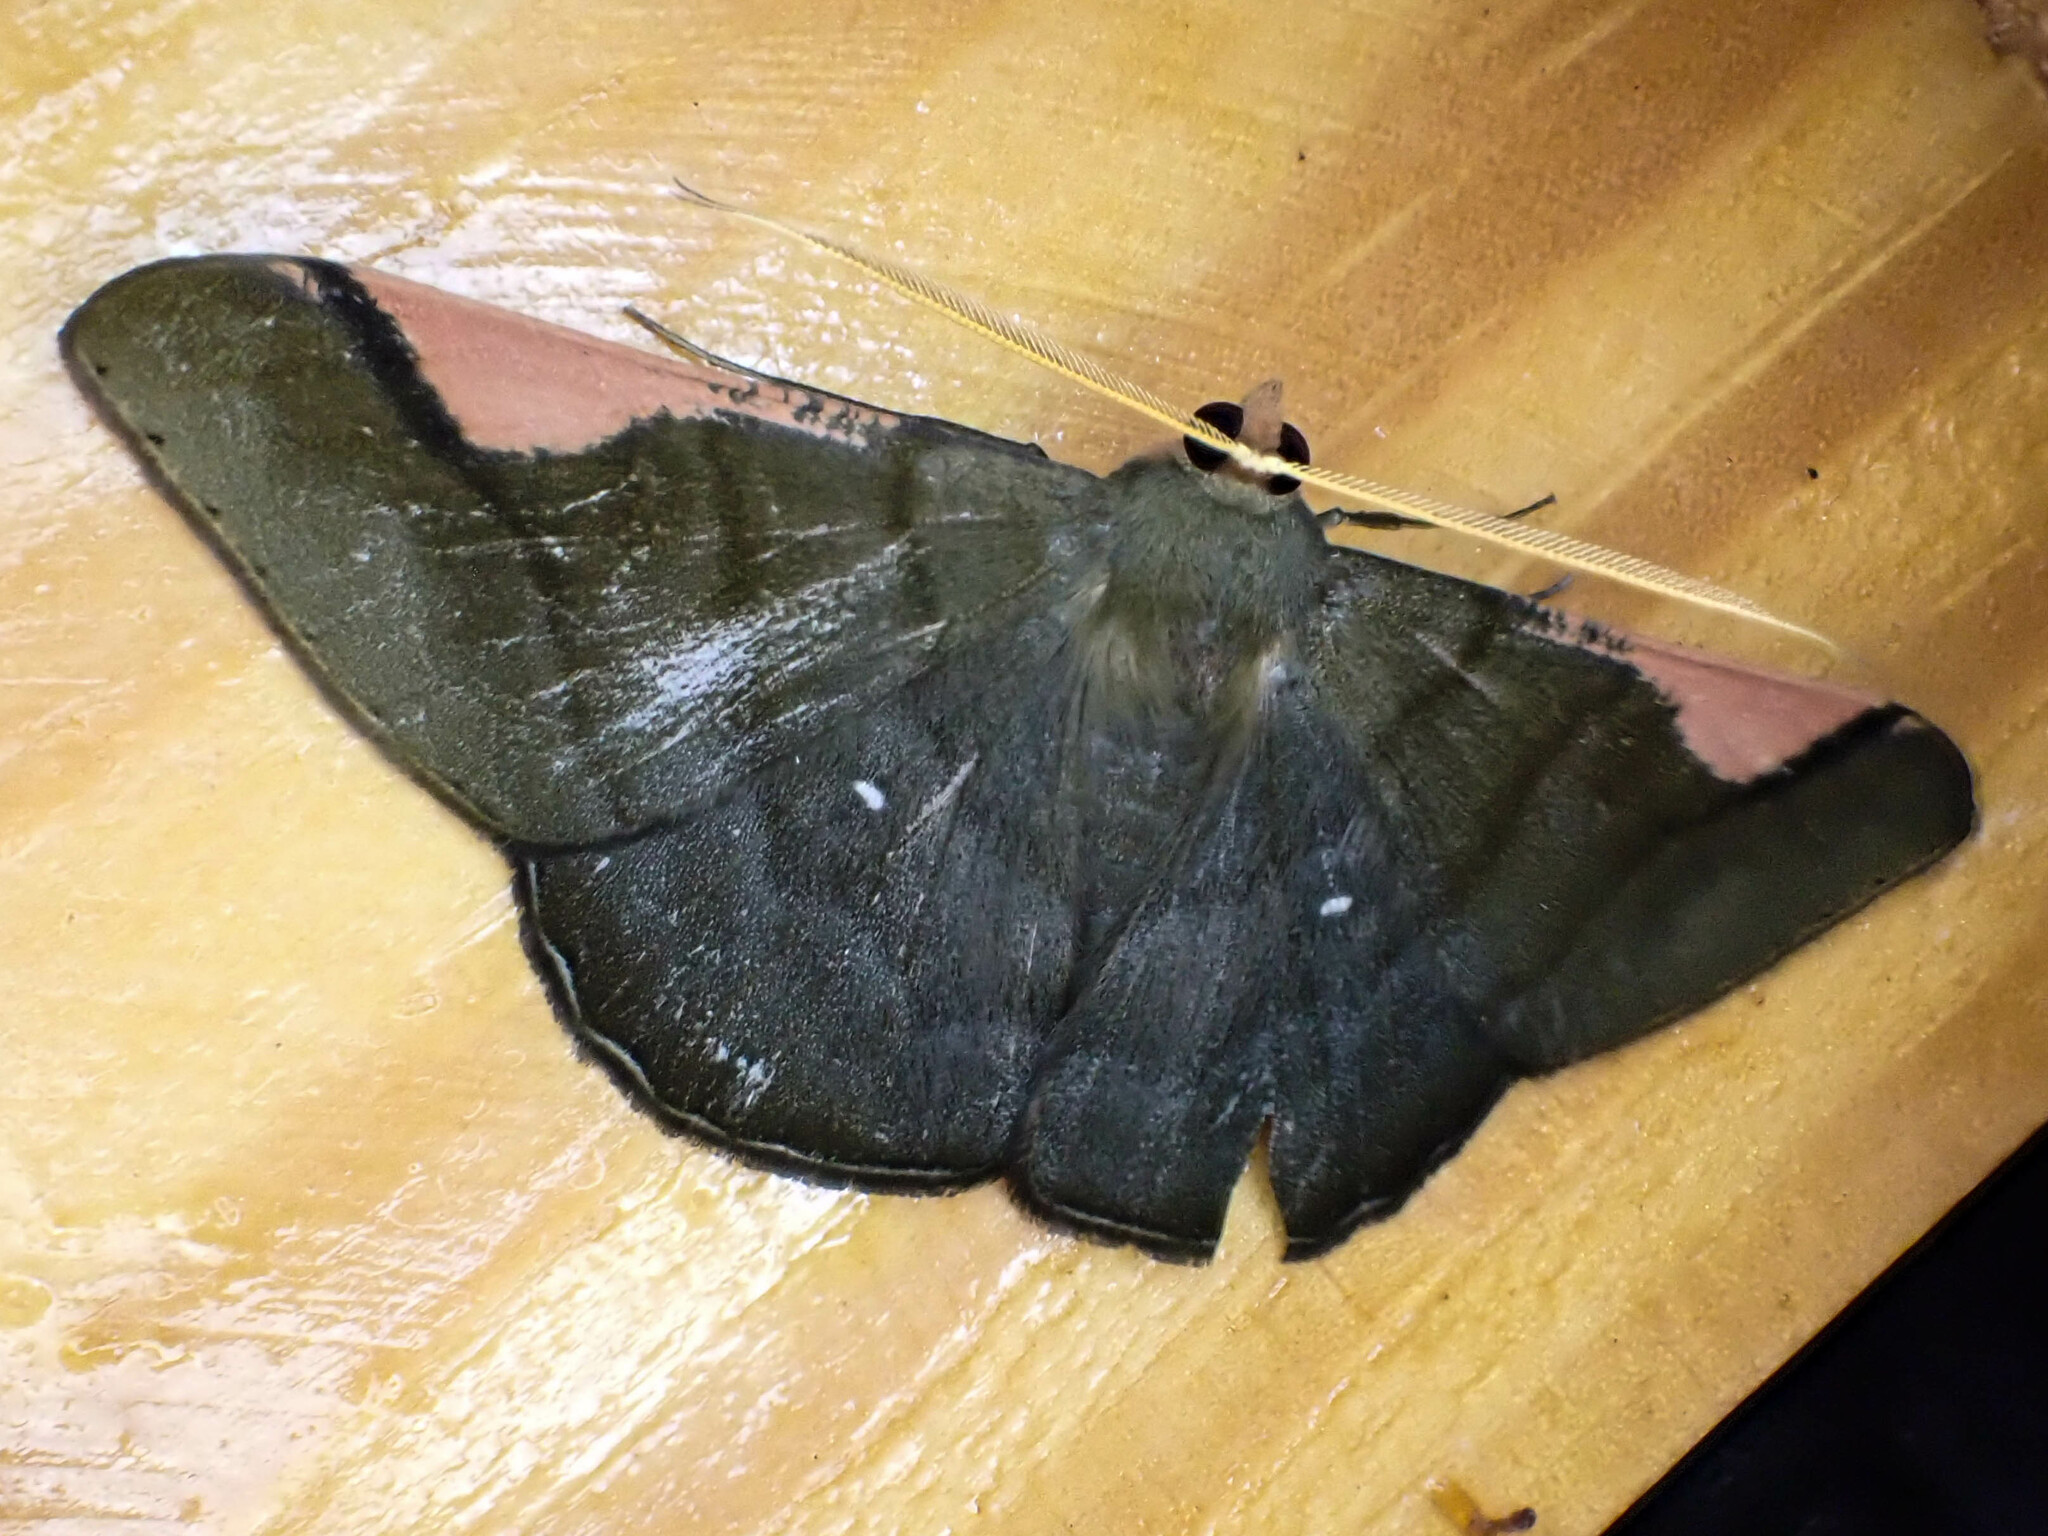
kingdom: Animalia
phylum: Arthropoda
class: Insecta
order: Lepidoptera
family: Geometridae
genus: Sphacelodes
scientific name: Sphacelodes vulneraria
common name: Looper moth
